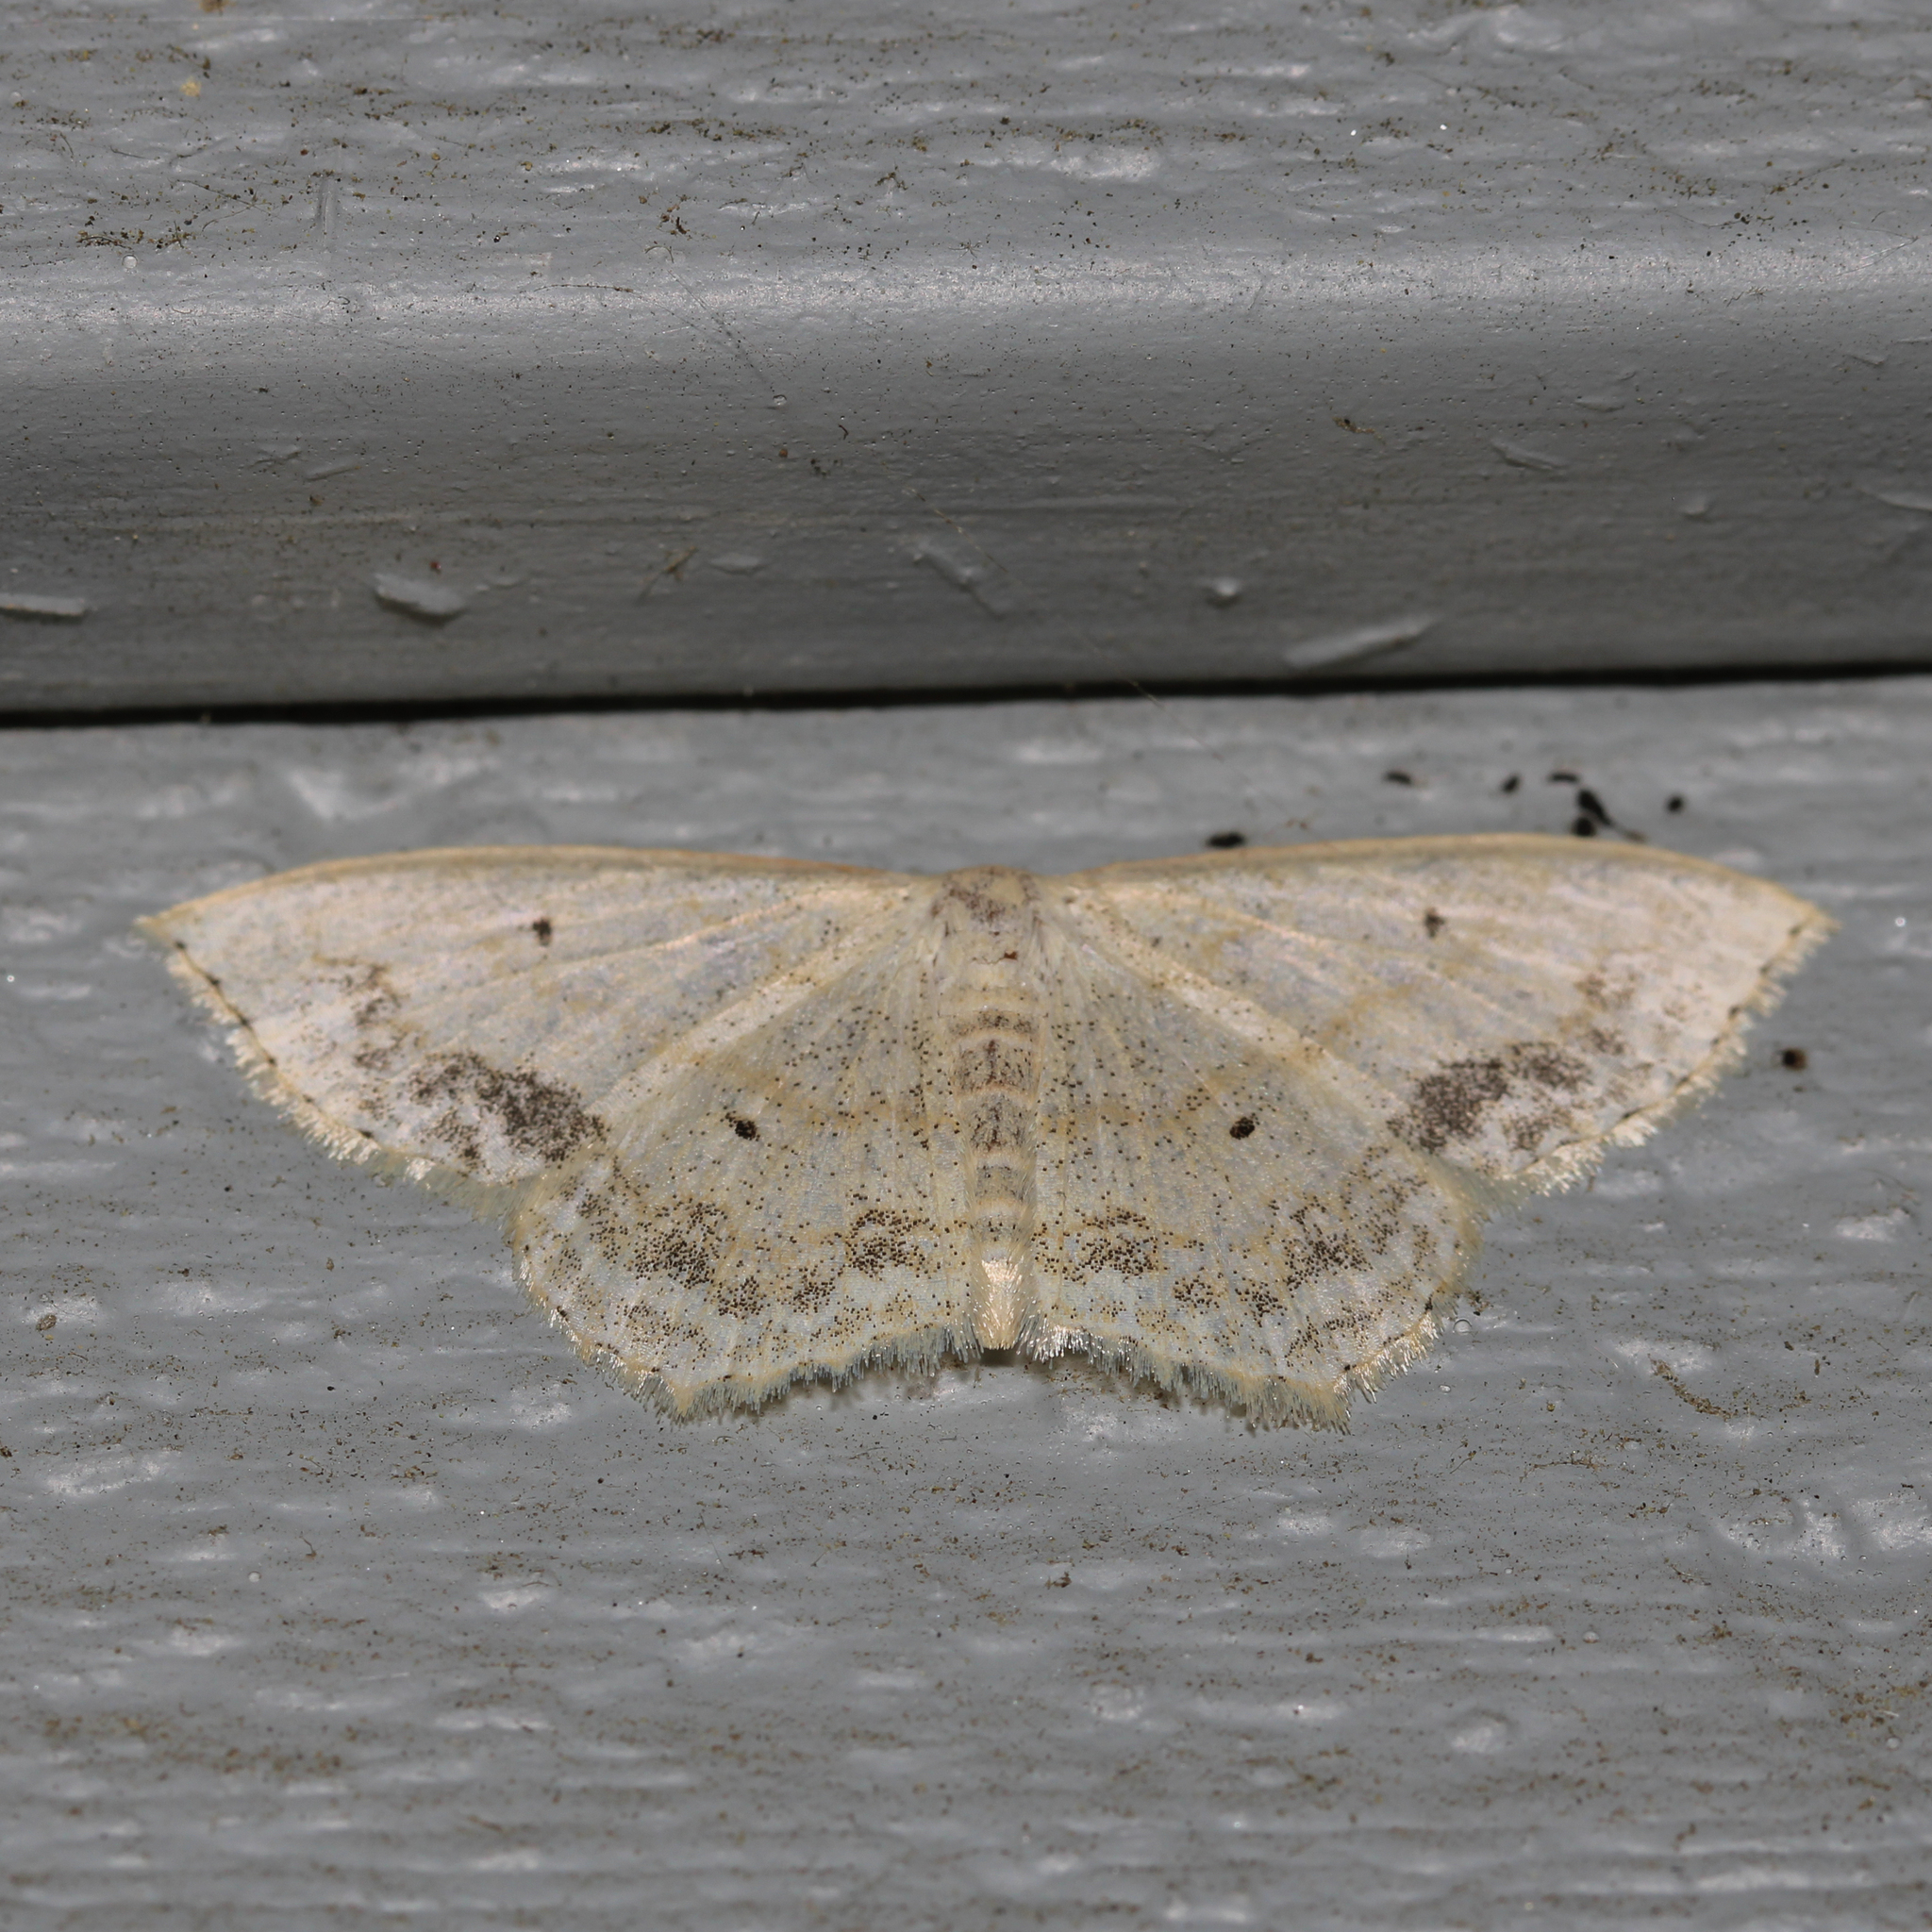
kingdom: Animalia
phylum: Arthropoda
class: Insecta
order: Lepidoptera
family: Geometridae
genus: Scopula
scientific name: Scopula limboundata
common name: Large lace border
